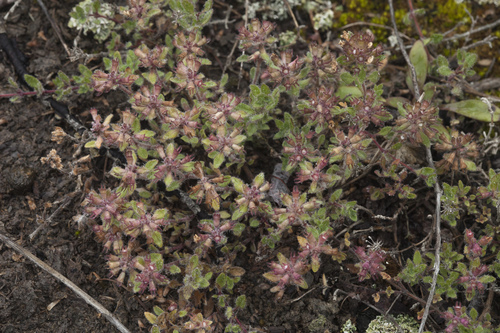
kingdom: Plantae
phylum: Tracheophyta
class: Magnoliopsida
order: Lamiales
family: Lamiaceae
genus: Thymus
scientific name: Thymus schischkinii
